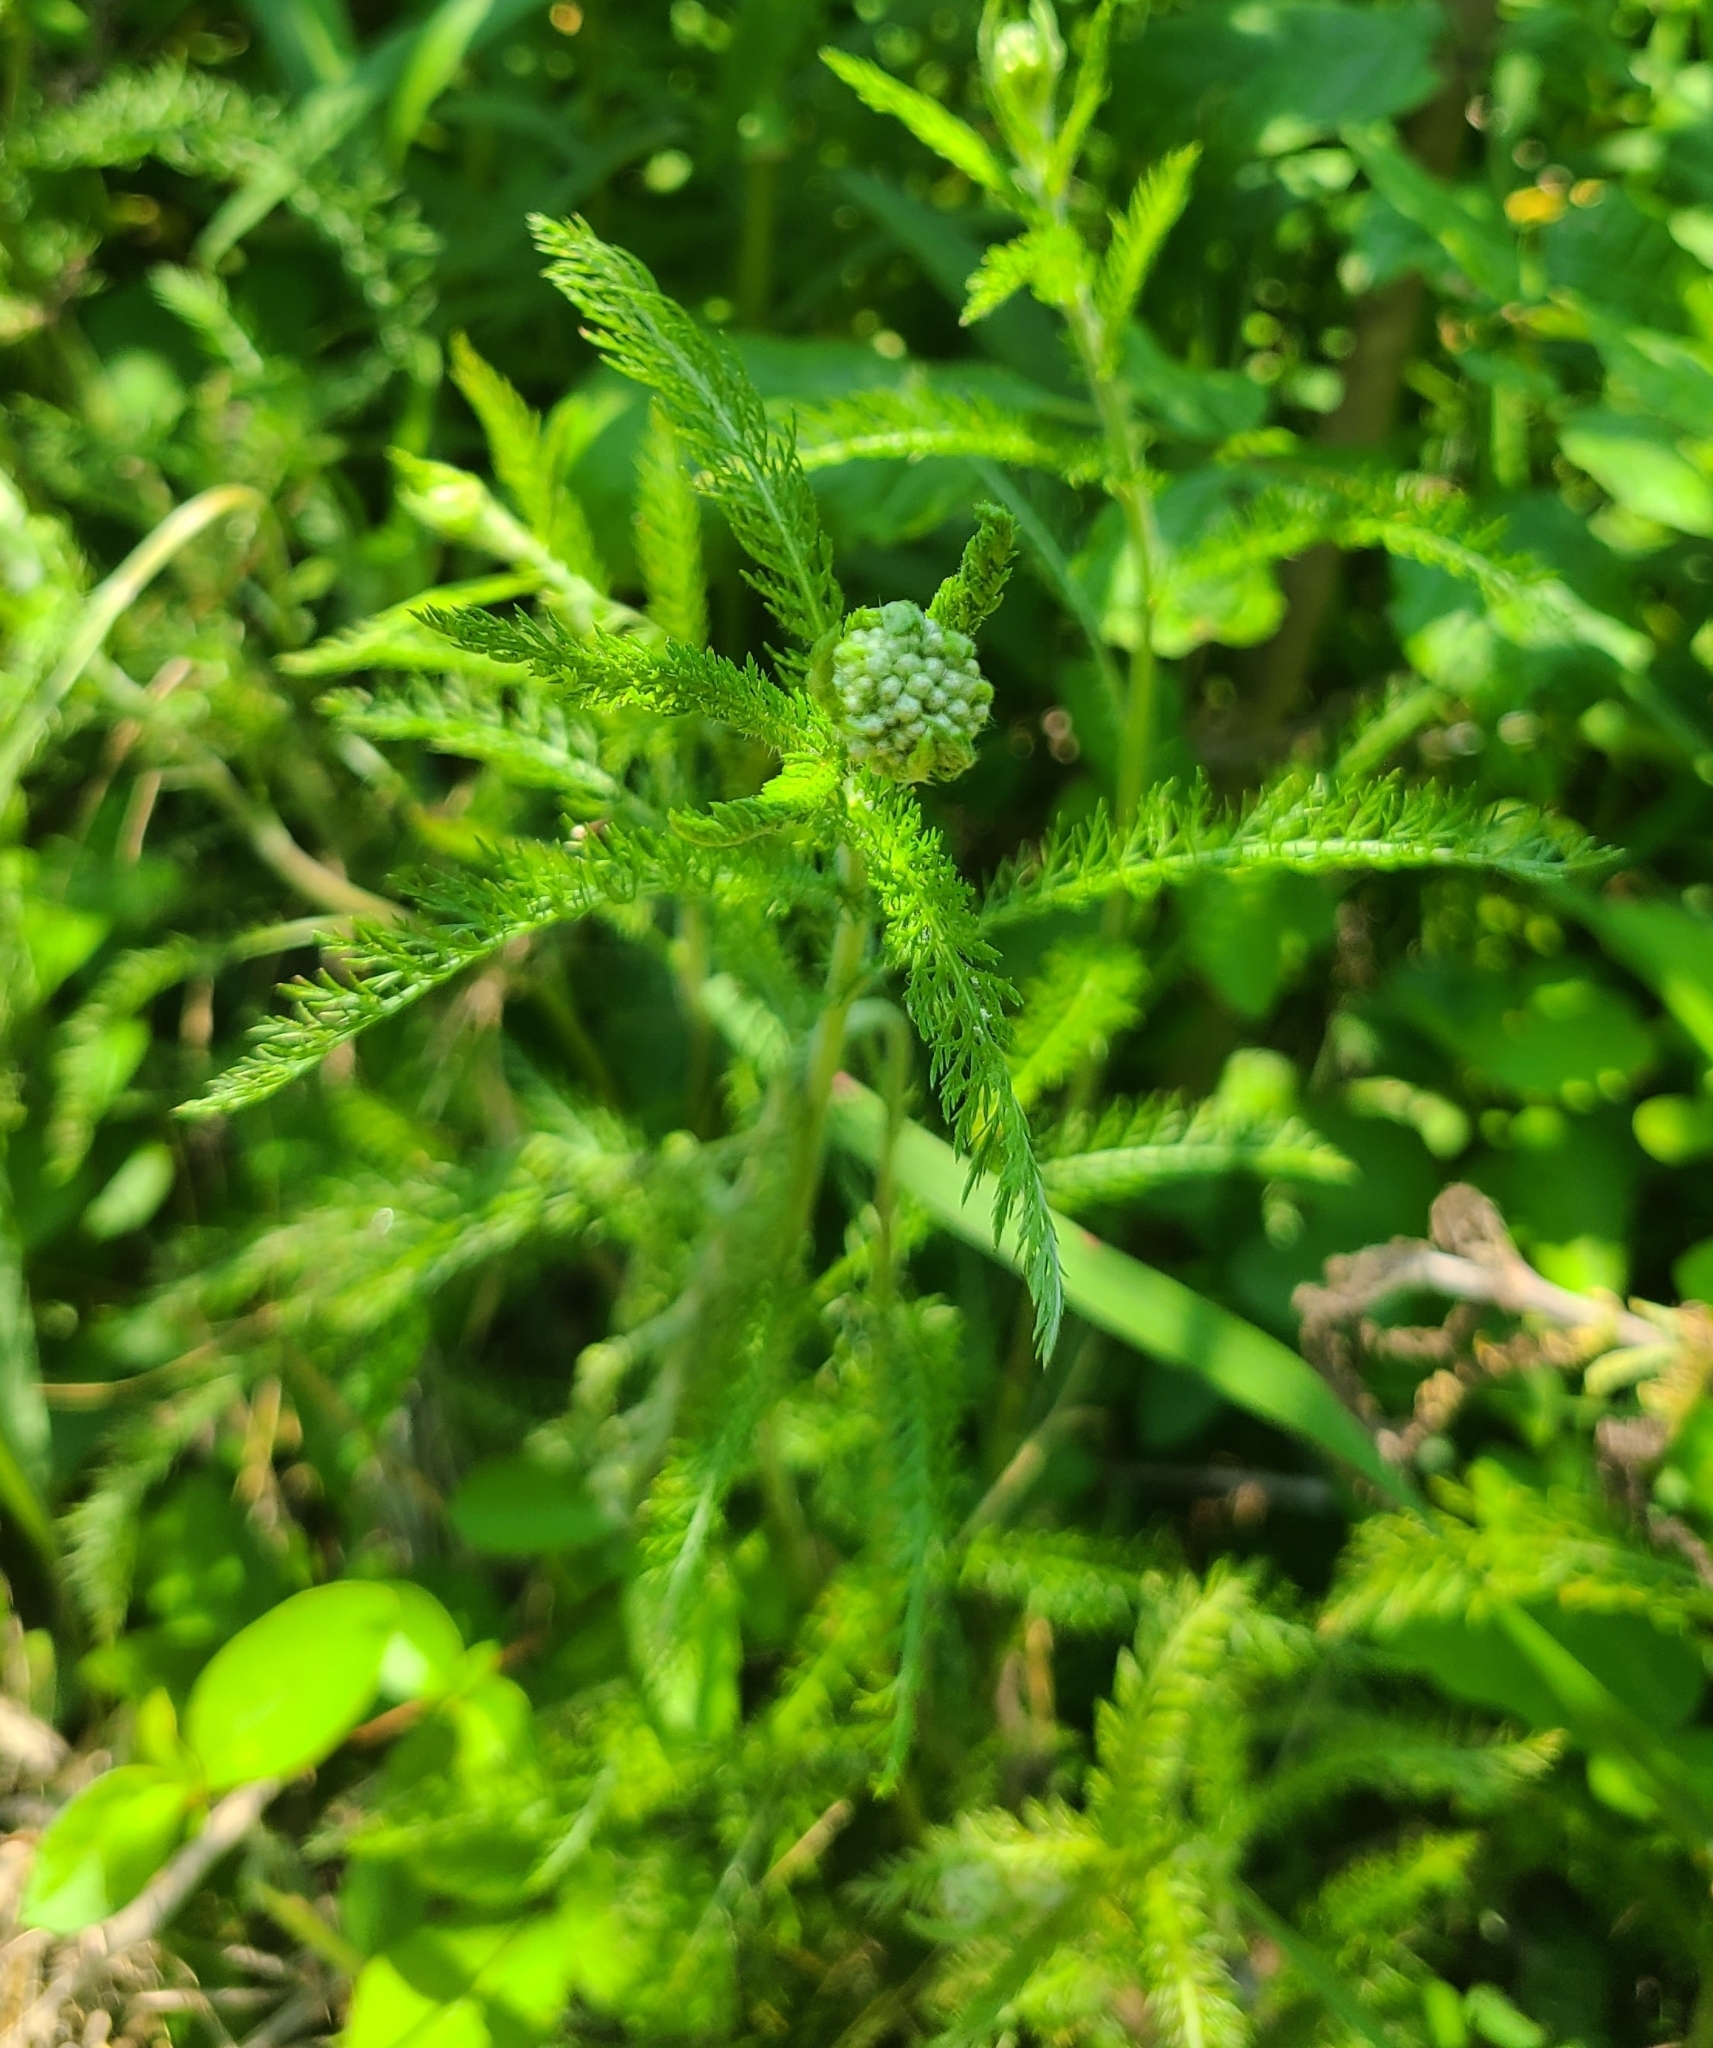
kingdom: Plantae
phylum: Tracheophyta
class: Magnoliopsida
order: Asterales
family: Asteraceae
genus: Achillea
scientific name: Achillea millefolium
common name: Yarrow
